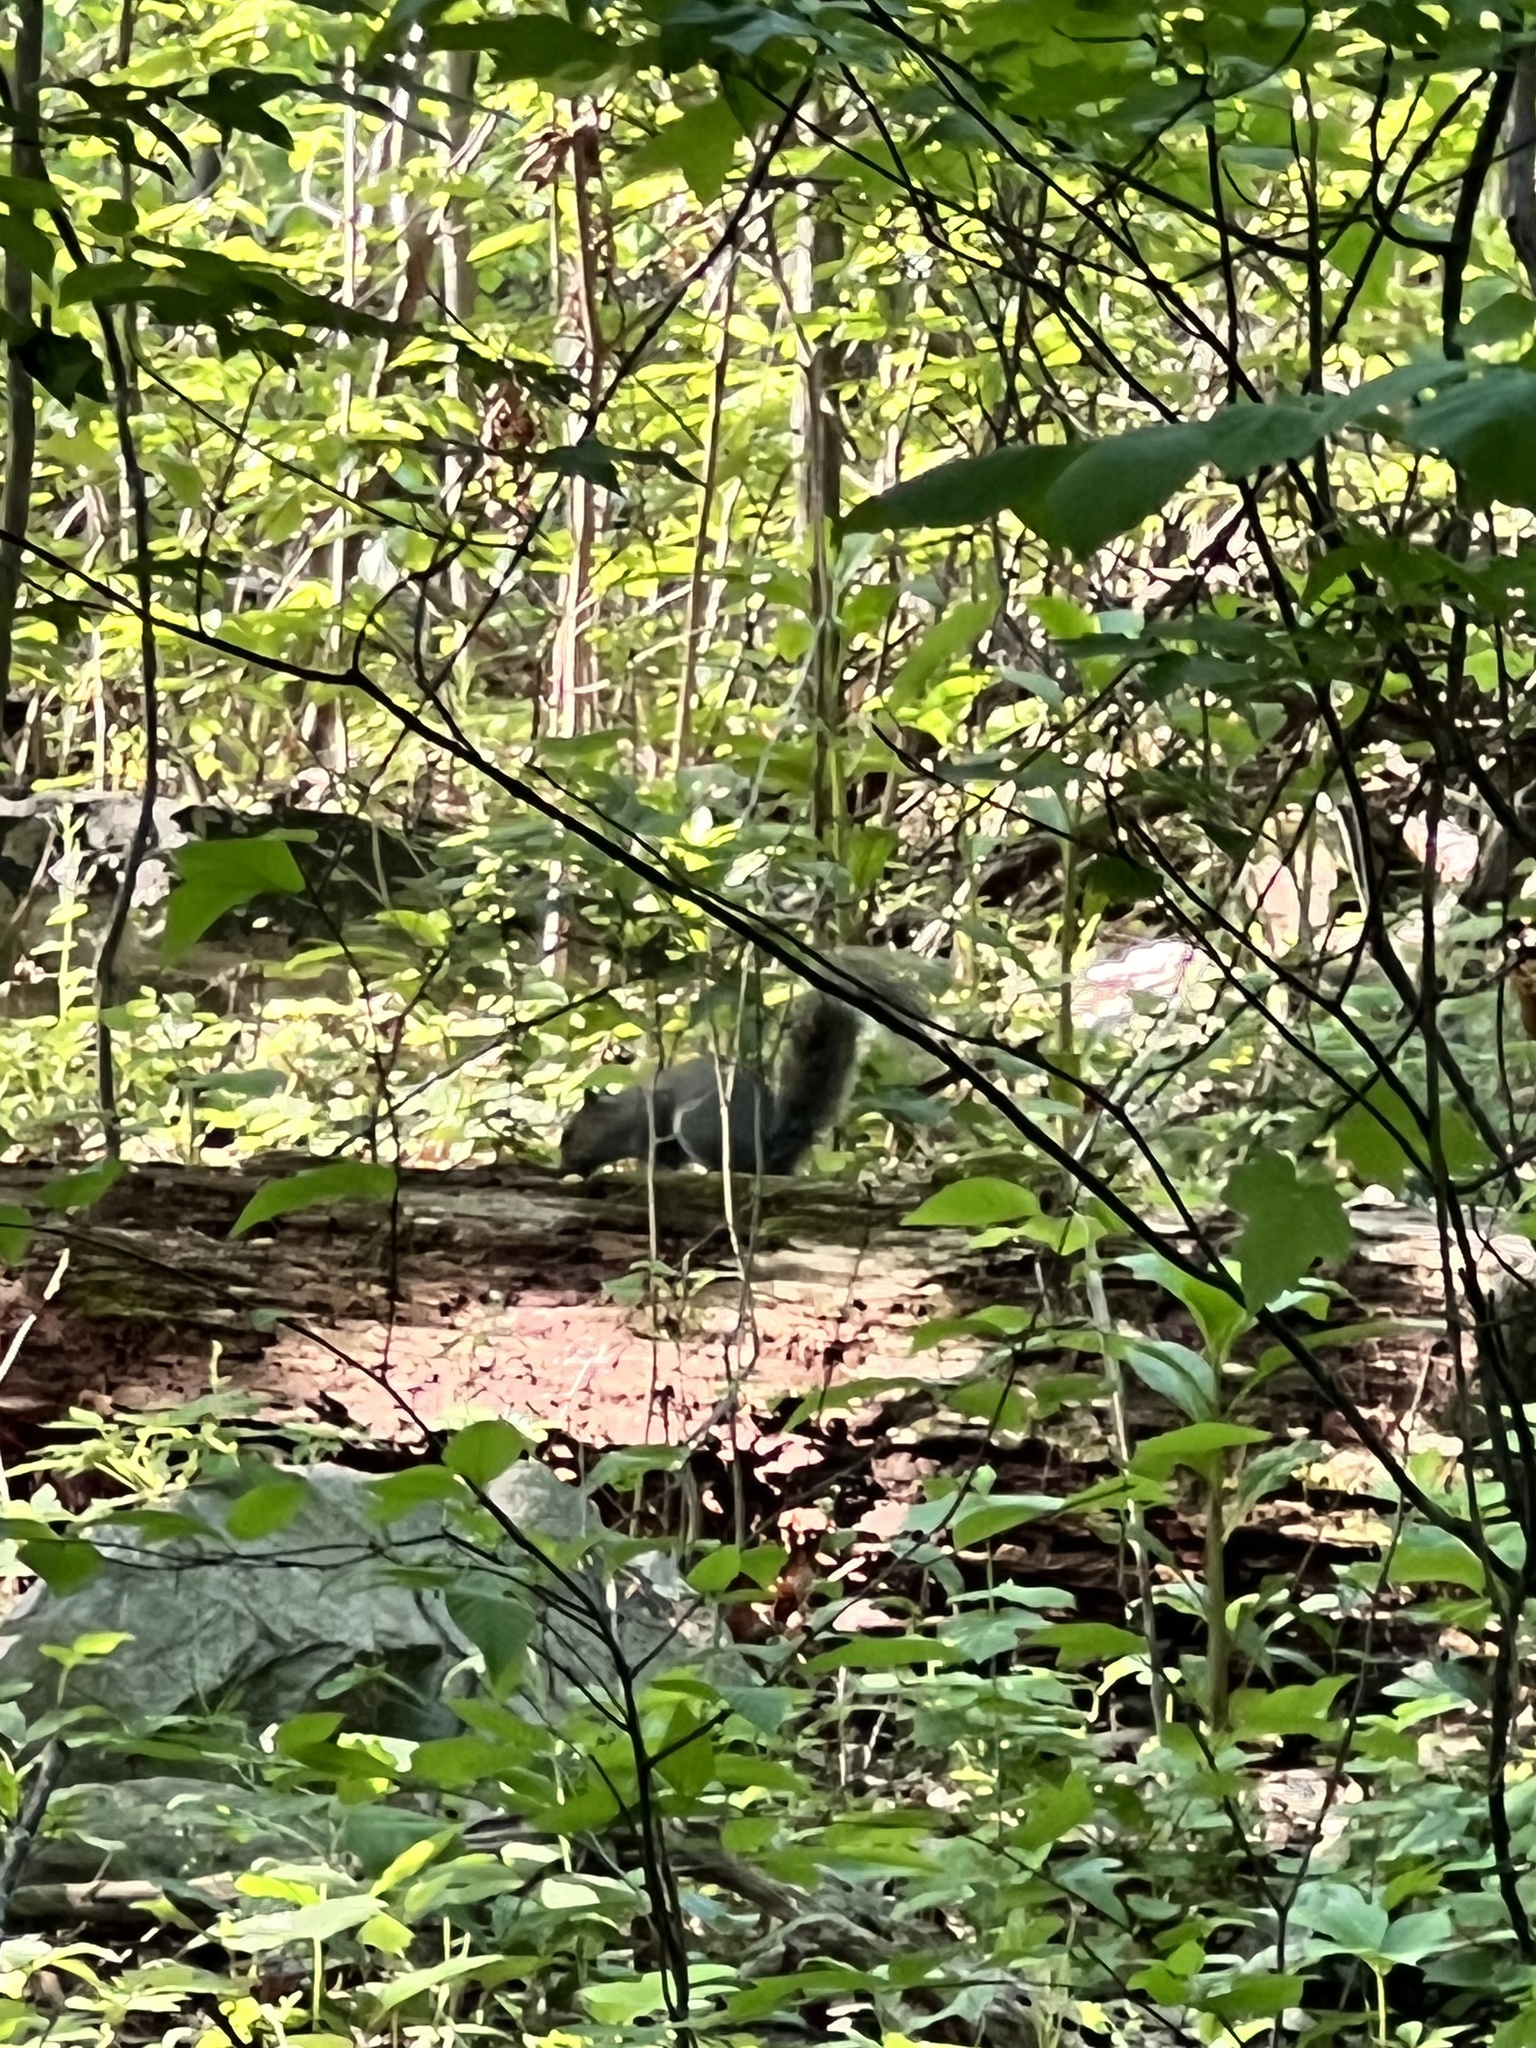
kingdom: Animalia
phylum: Chordata
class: Mammalia
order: Rodentia
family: Sciuridae
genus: Sciurus
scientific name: Sciurus carolinensis
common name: Eastern gray squirrel
